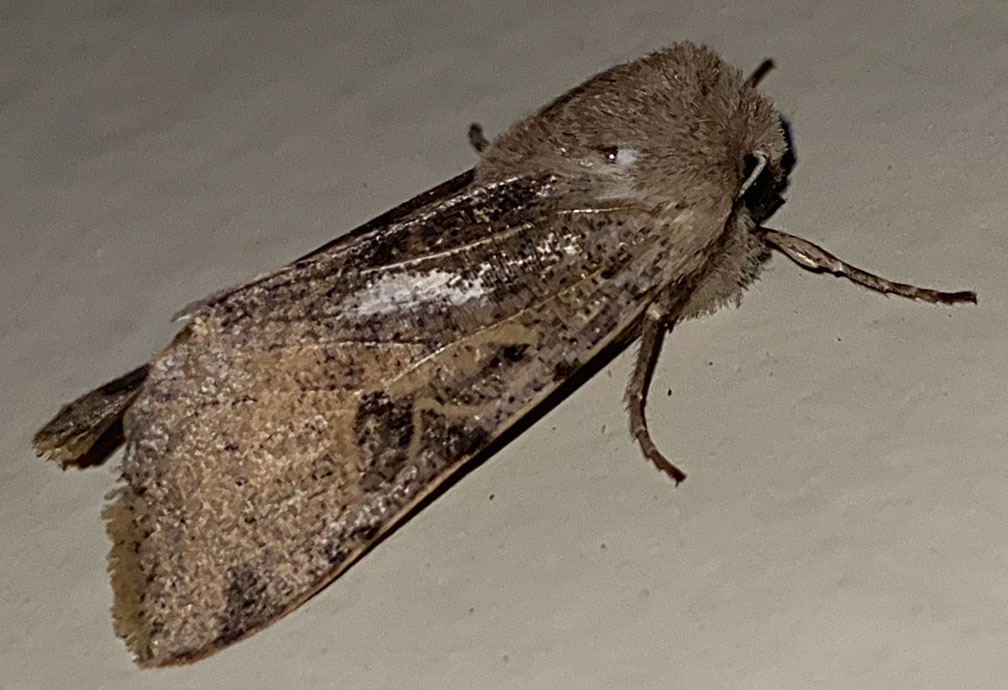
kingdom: Animalia
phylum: Arthropoda
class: Insecta
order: Lepidoptera
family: Noctuidae
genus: Orthosia
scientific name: Orthosia behrensiana
